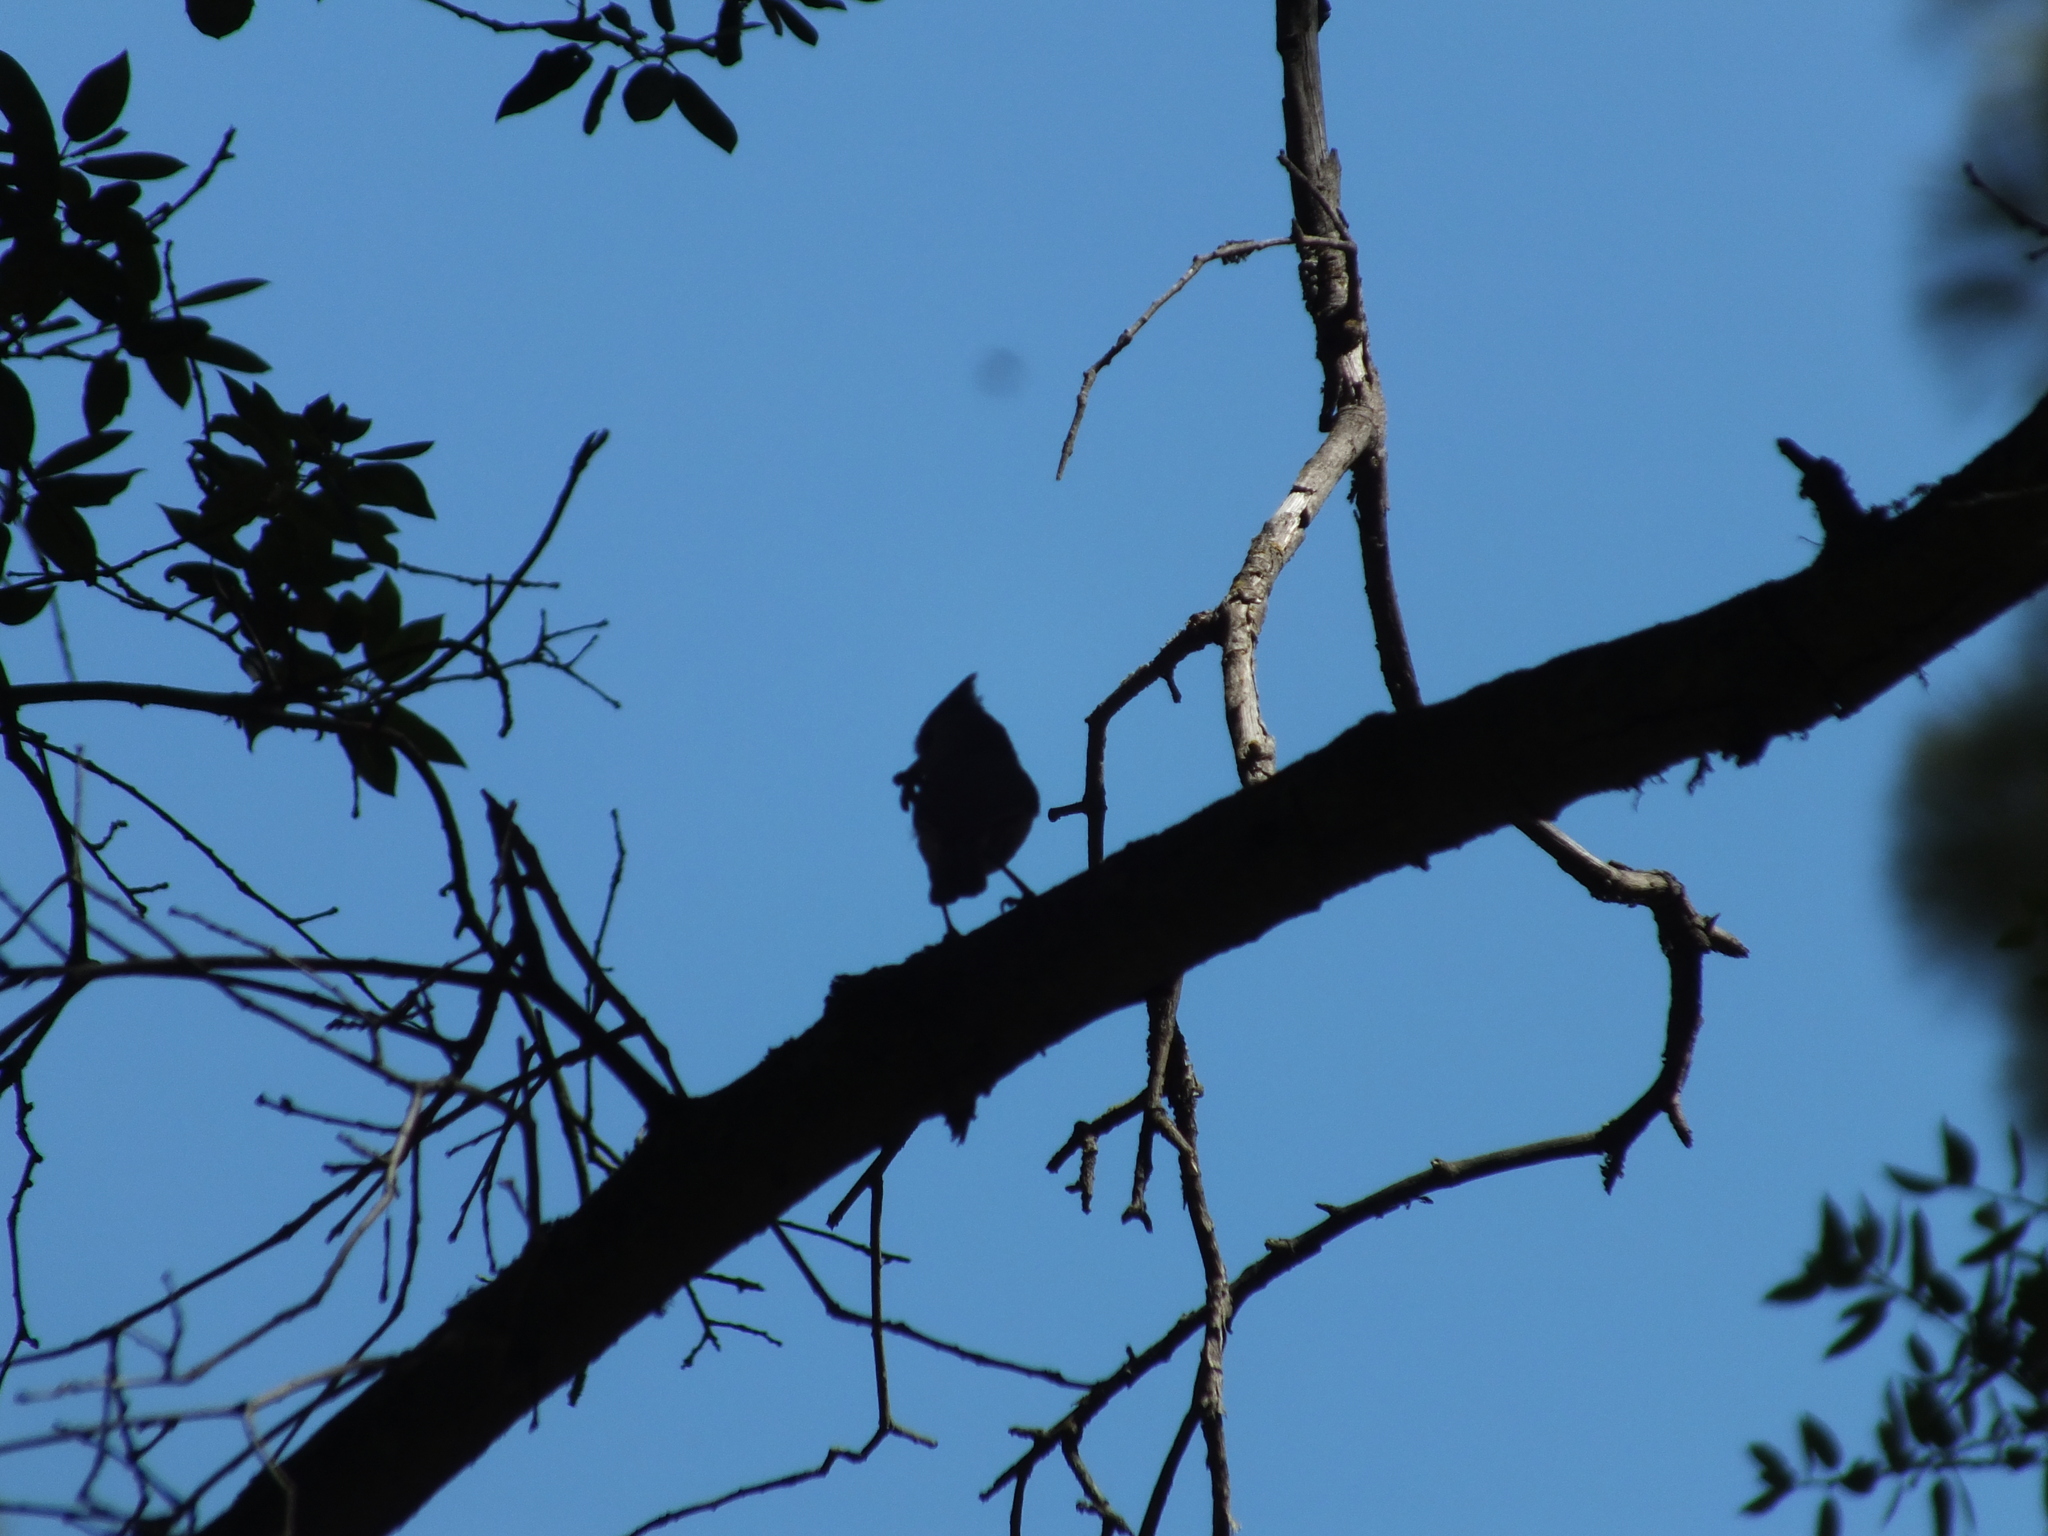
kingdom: Animalia
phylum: Chordata
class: Aves
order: Passeriformes
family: Paridae
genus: Baeolophus
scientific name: Baeolophus inornatus
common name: Oak titmouse
